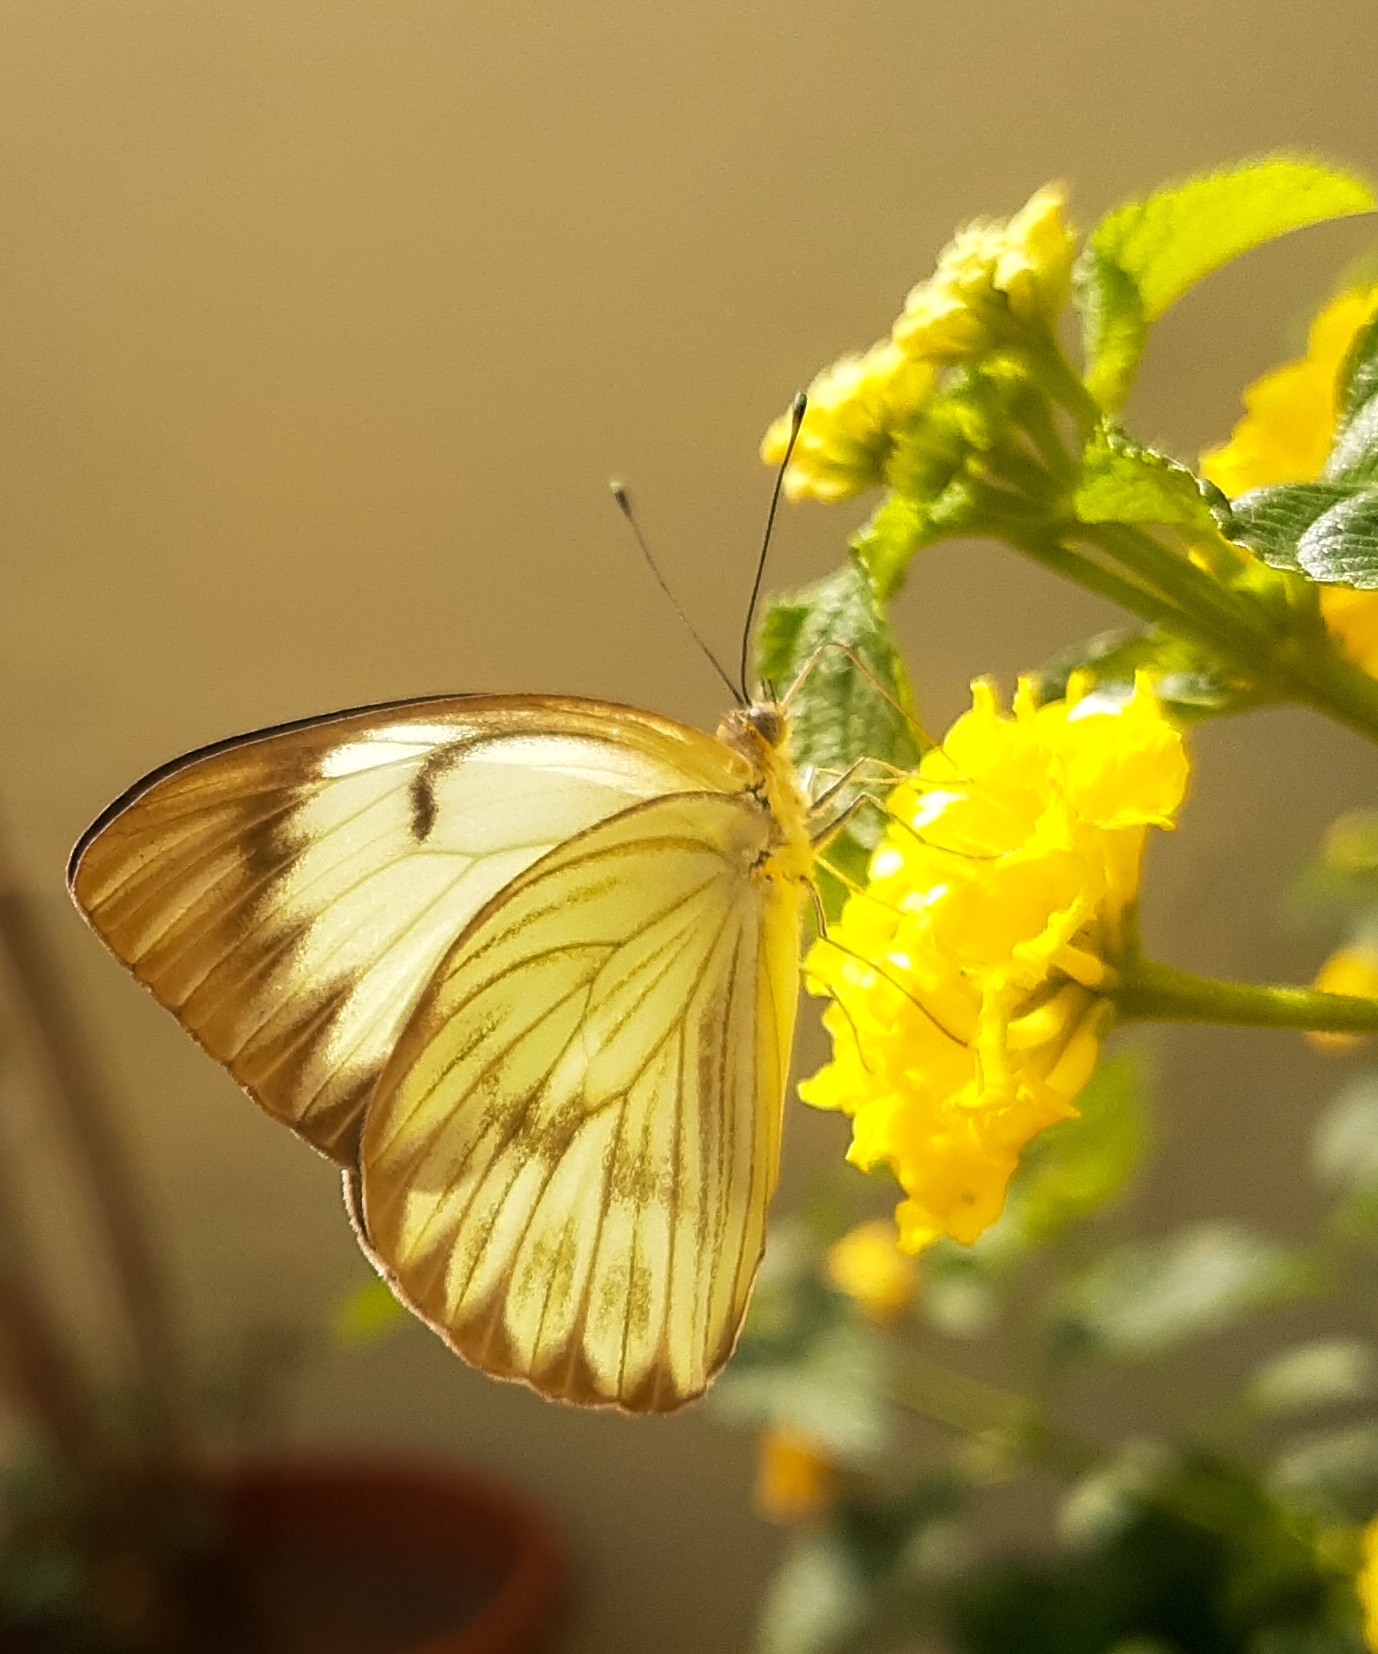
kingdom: Animalia
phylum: Arthropoda
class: Insecta
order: Lepidoptera
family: Pieridae
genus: Ascia
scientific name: Ascia monuste
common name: Great southern white
